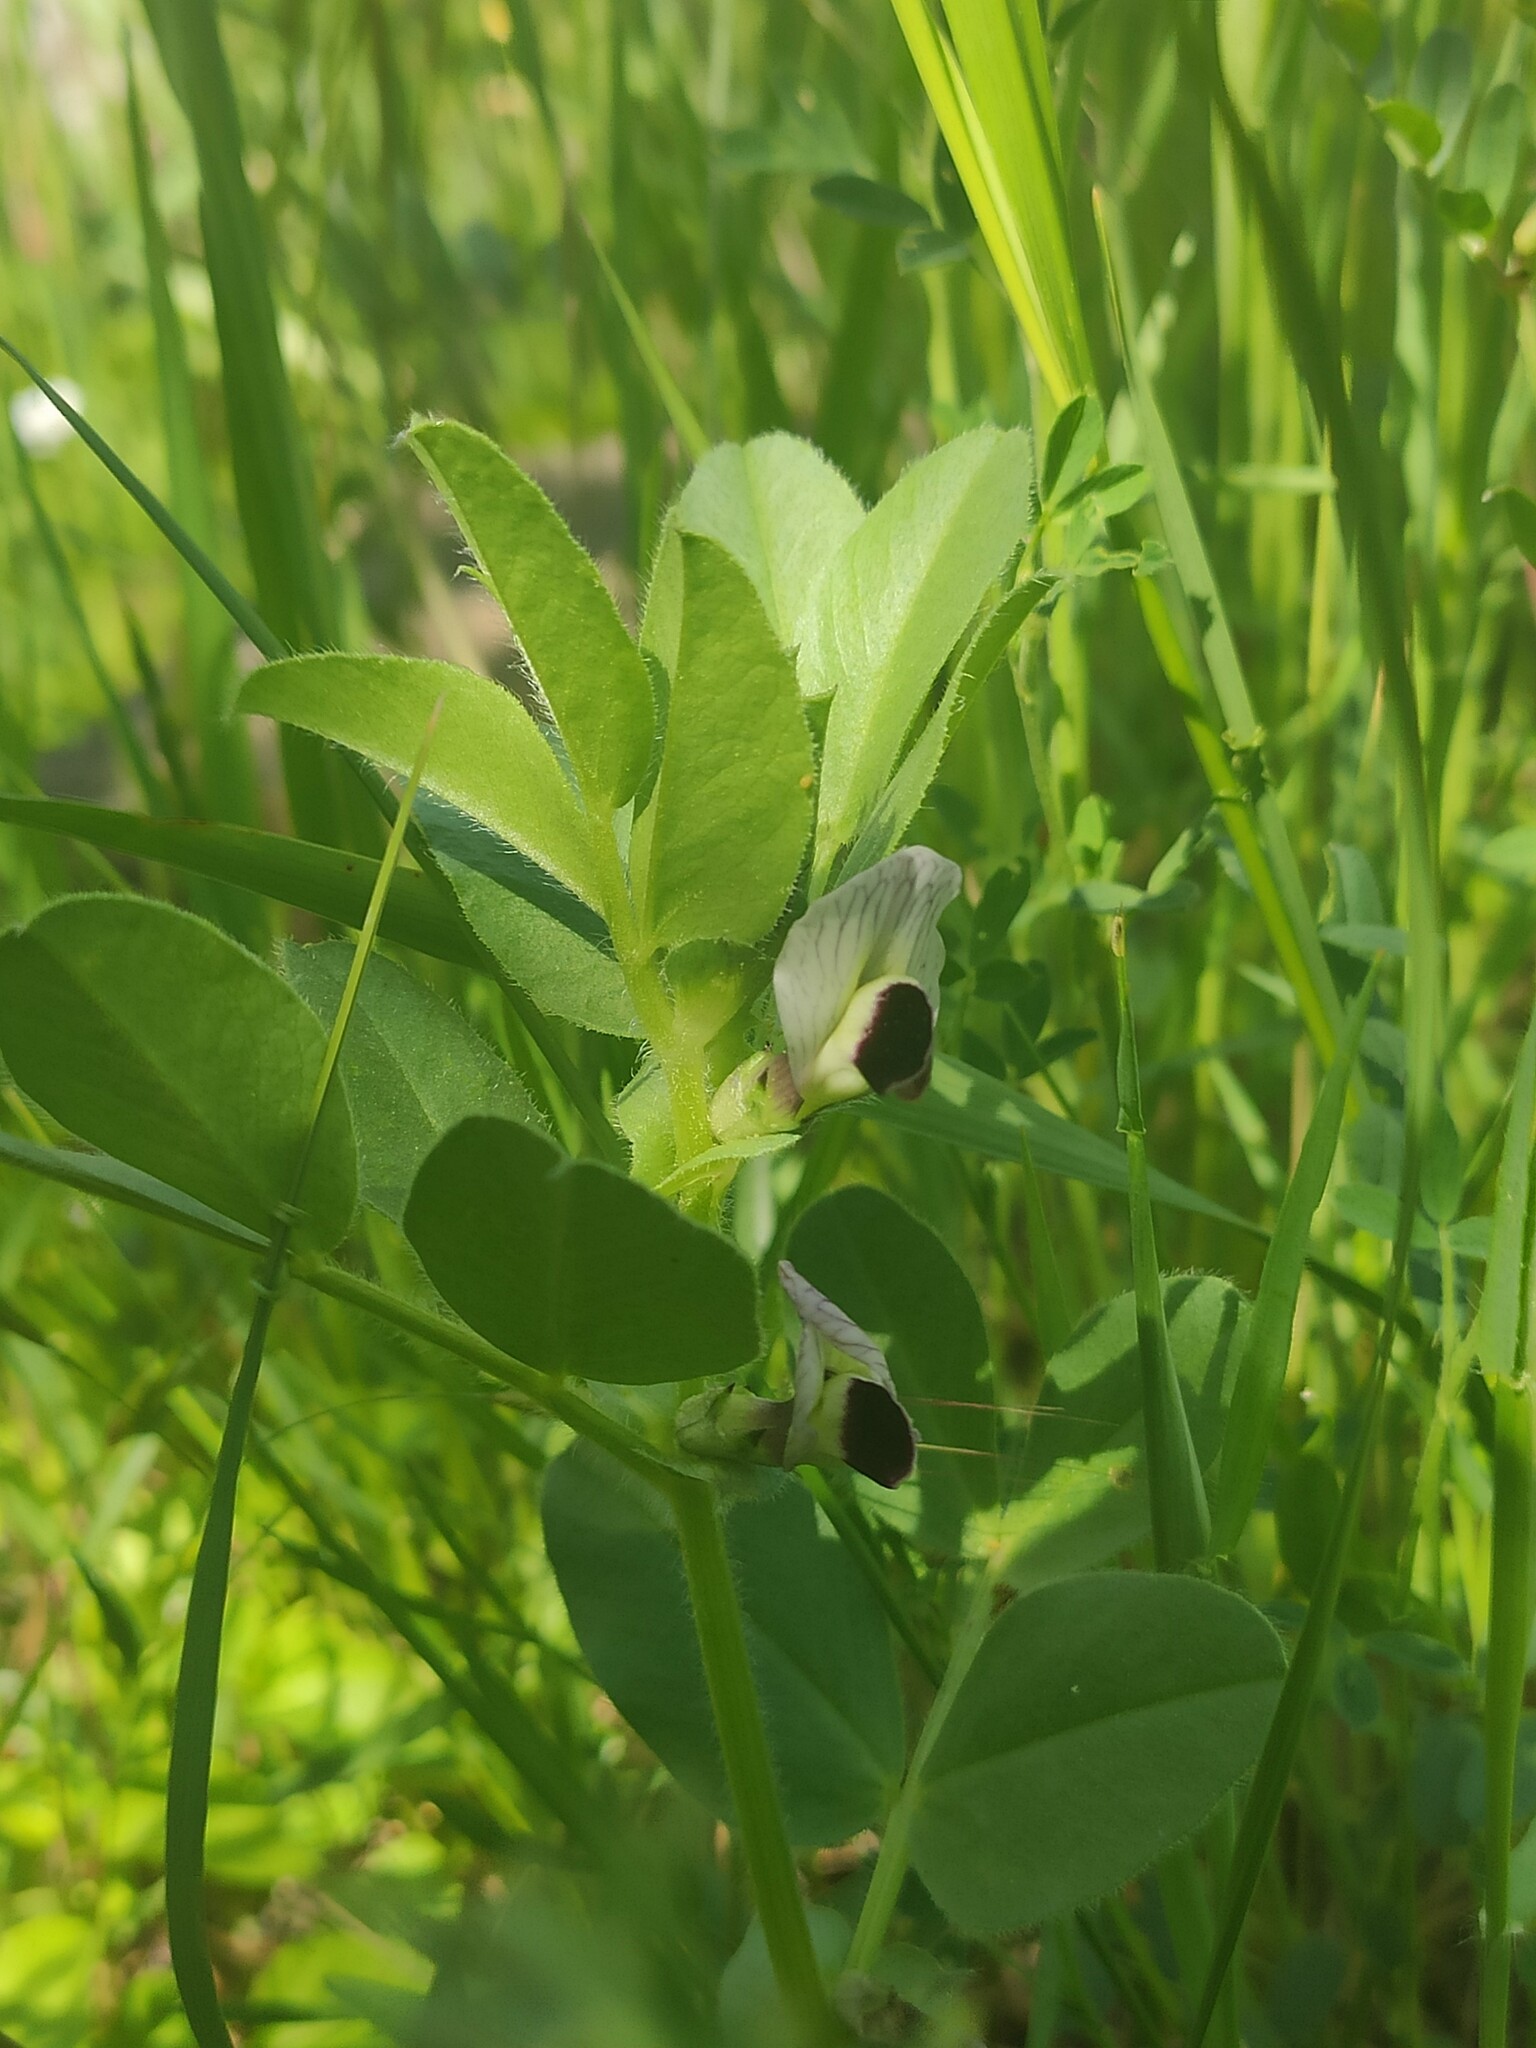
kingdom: Plantae
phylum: Tracheophyta
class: Magnoliopsida
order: Fabales
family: Fabaceae
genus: Vicia
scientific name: Vicia narbonensis
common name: Narbonne vetch
